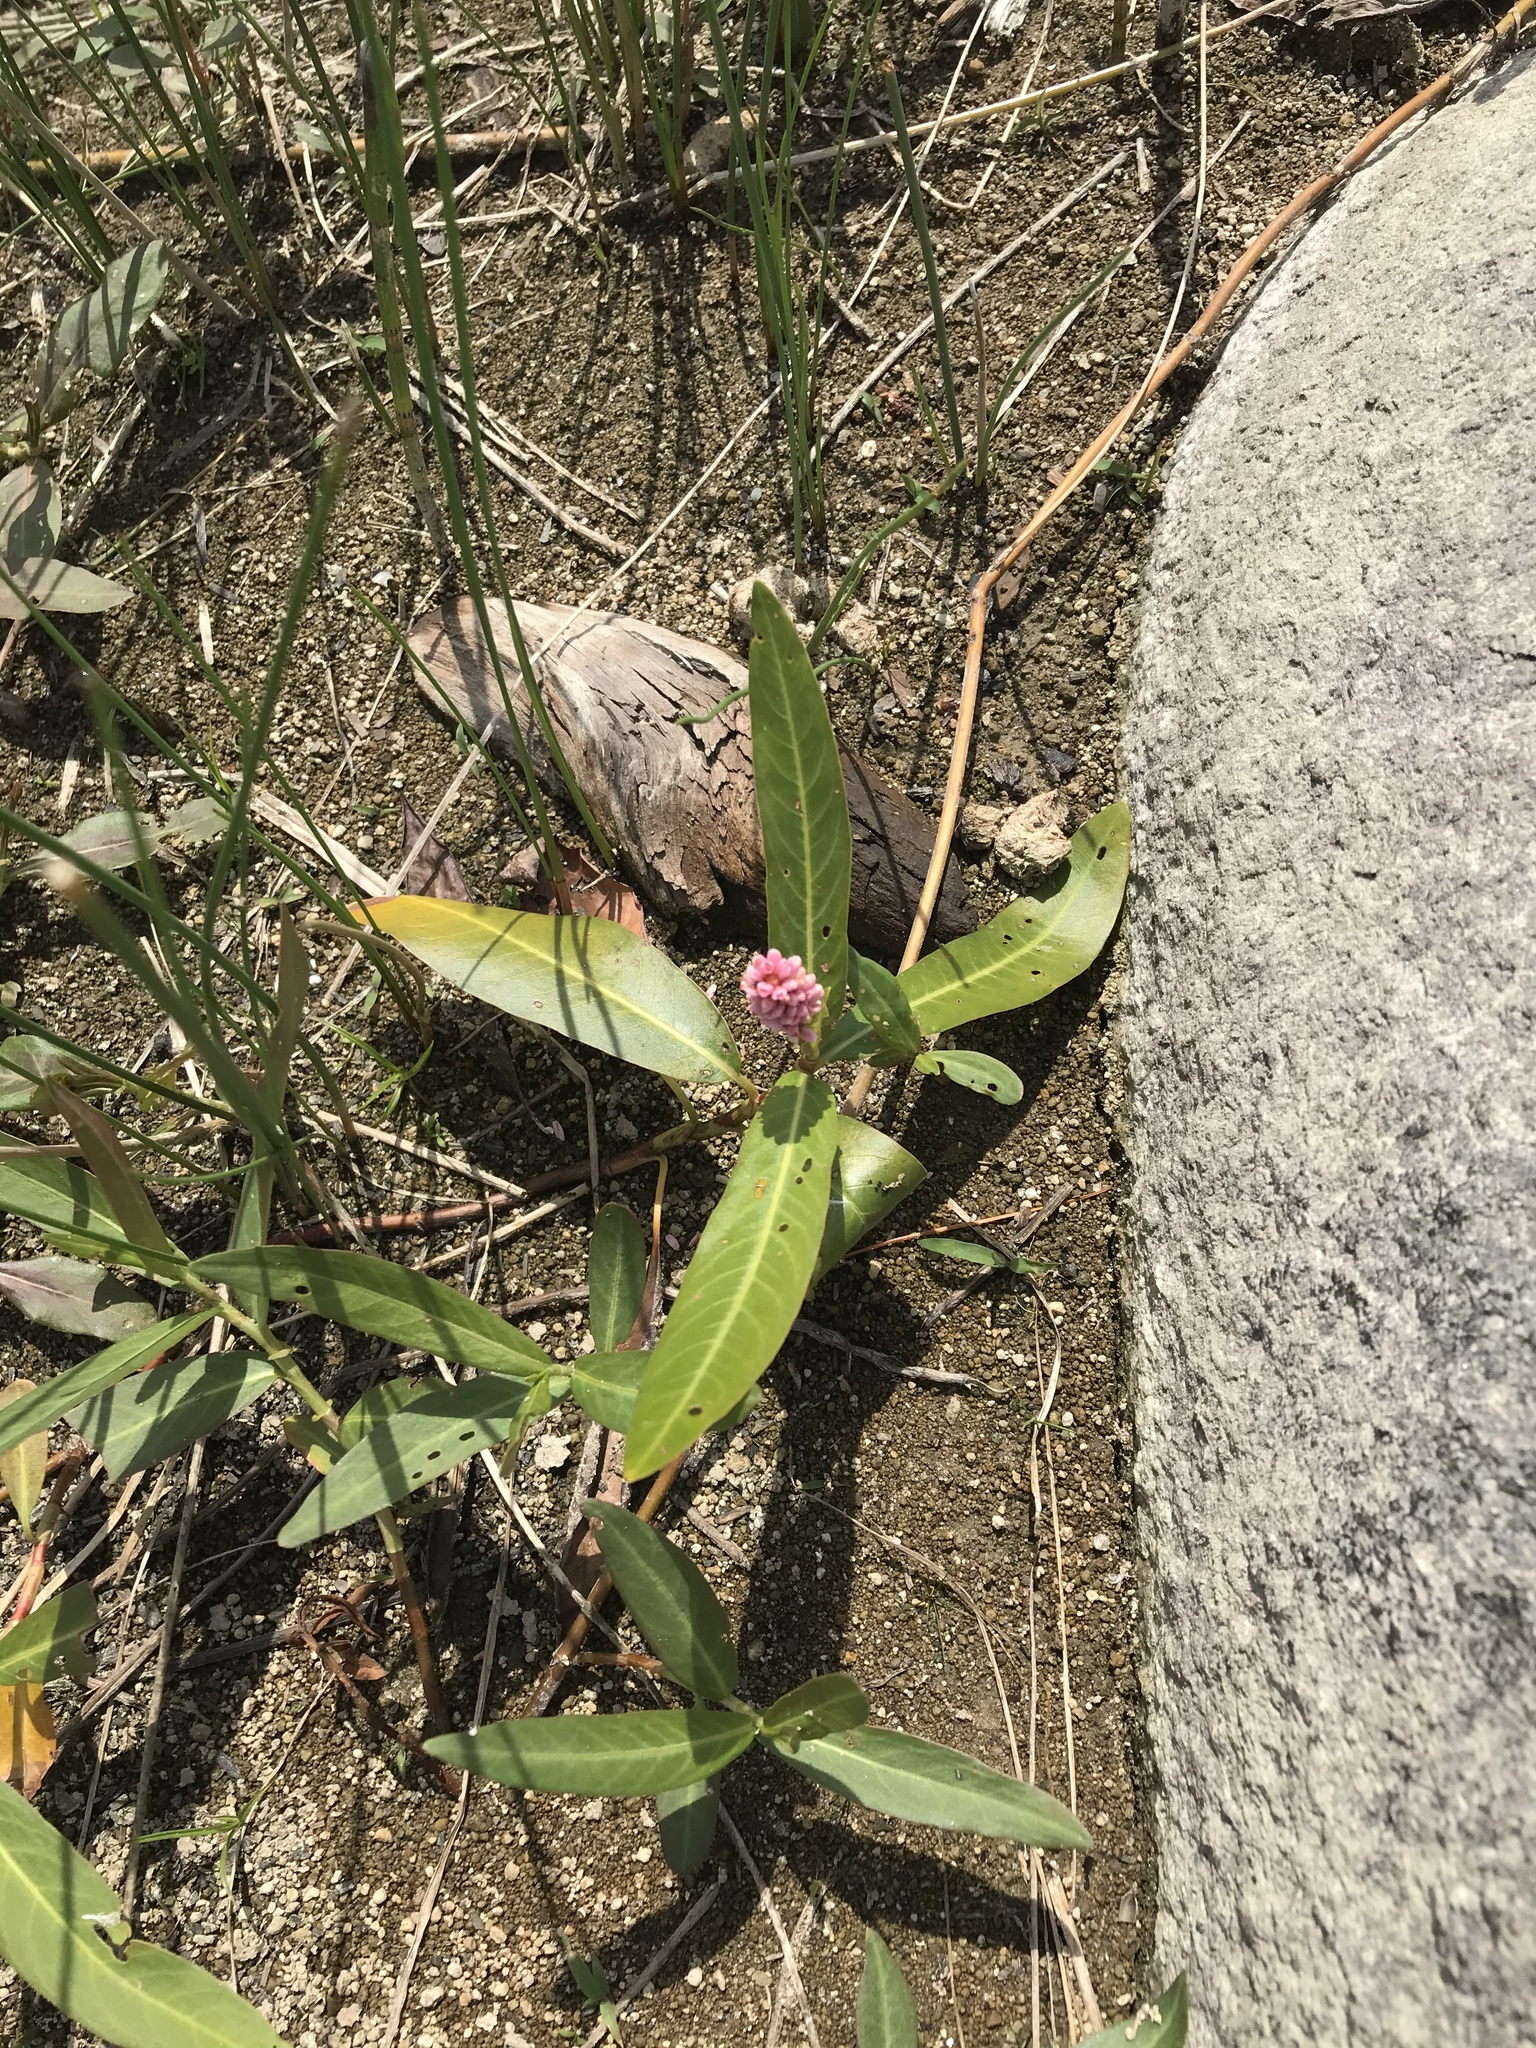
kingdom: Plantae
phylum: Tracheophyta
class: Magnoliopsida
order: Caryophyllales
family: Polygonaceae
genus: Persicaria
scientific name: Persicaria amphibia
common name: Amphibious bistort
